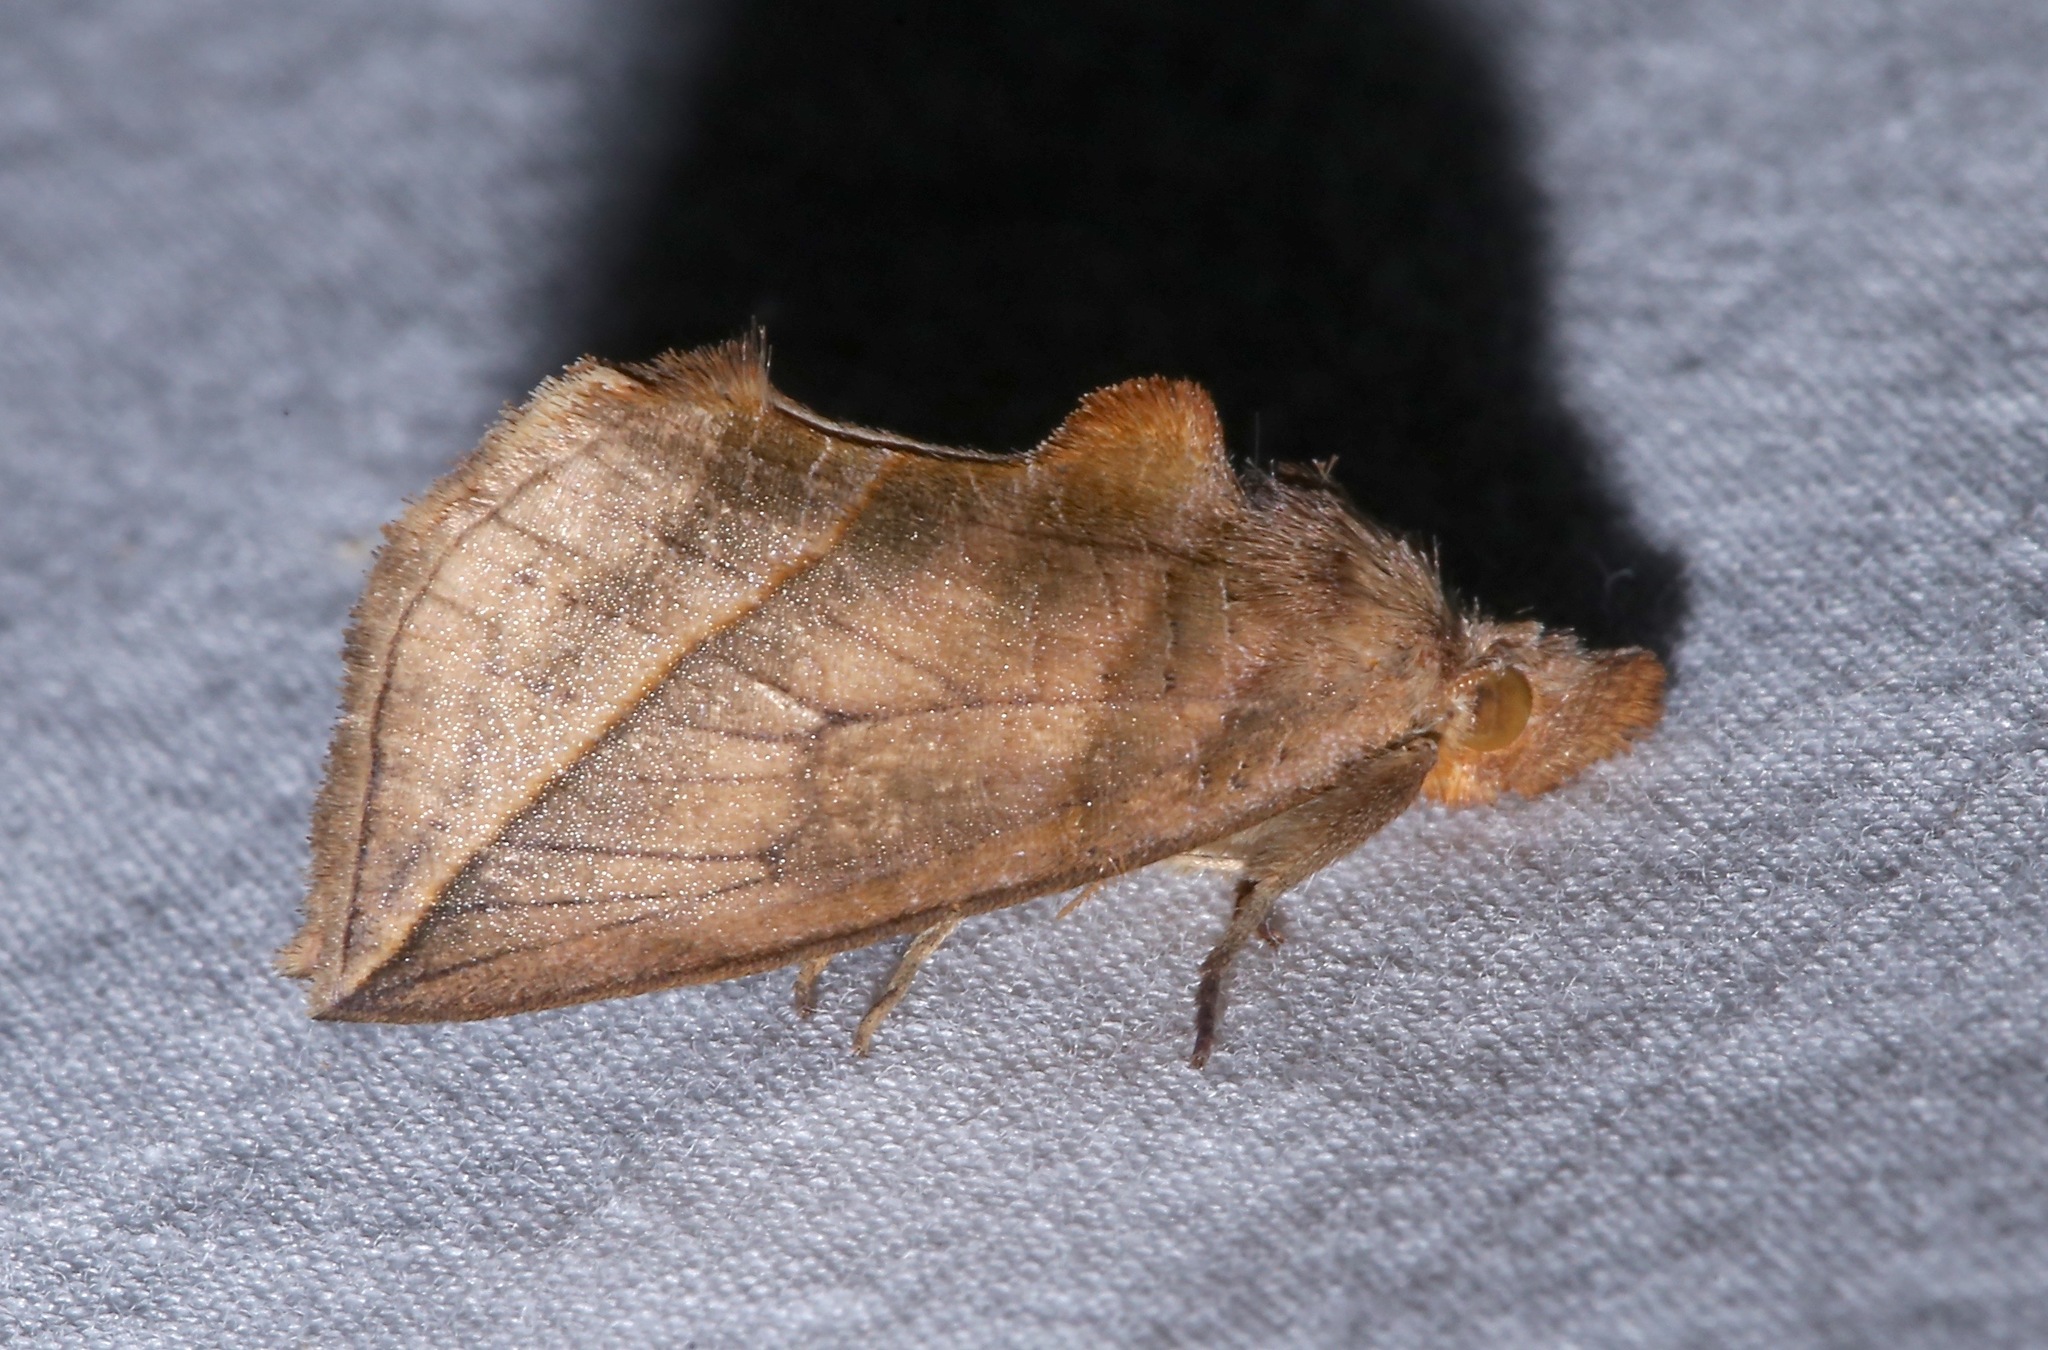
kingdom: Animalia
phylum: Arthropoda
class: Insecta
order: Lepidoptera
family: Erebidae
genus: Calyptra
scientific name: Calyptra canadensis
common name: Canadian owlet
